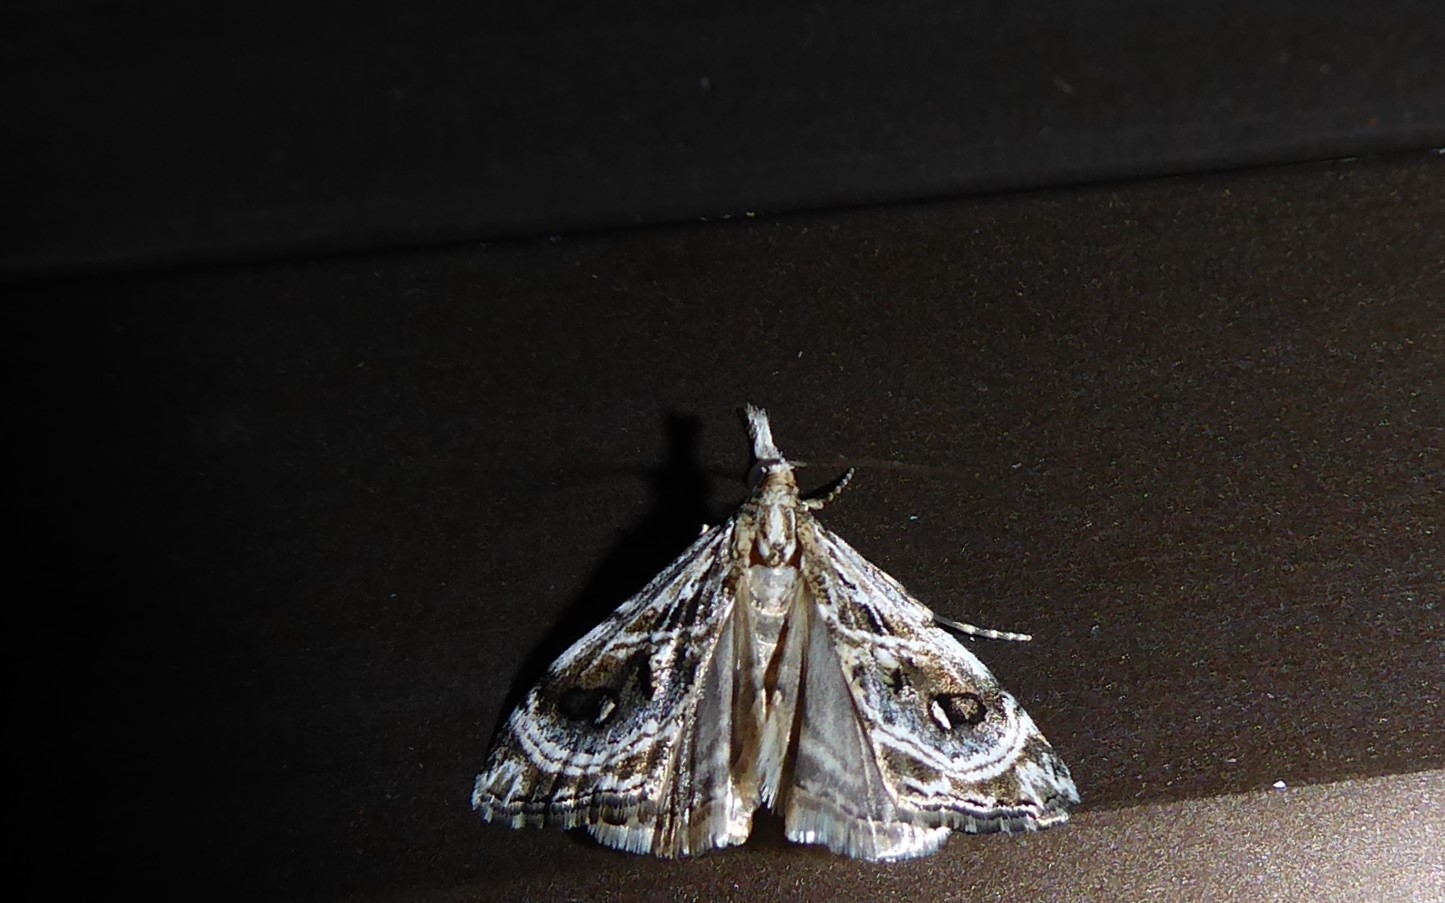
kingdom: Animalia
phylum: Arthropoda
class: Insecta
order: Lepidoptera
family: Crambidae
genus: Gadira
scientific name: Gadira acerella
